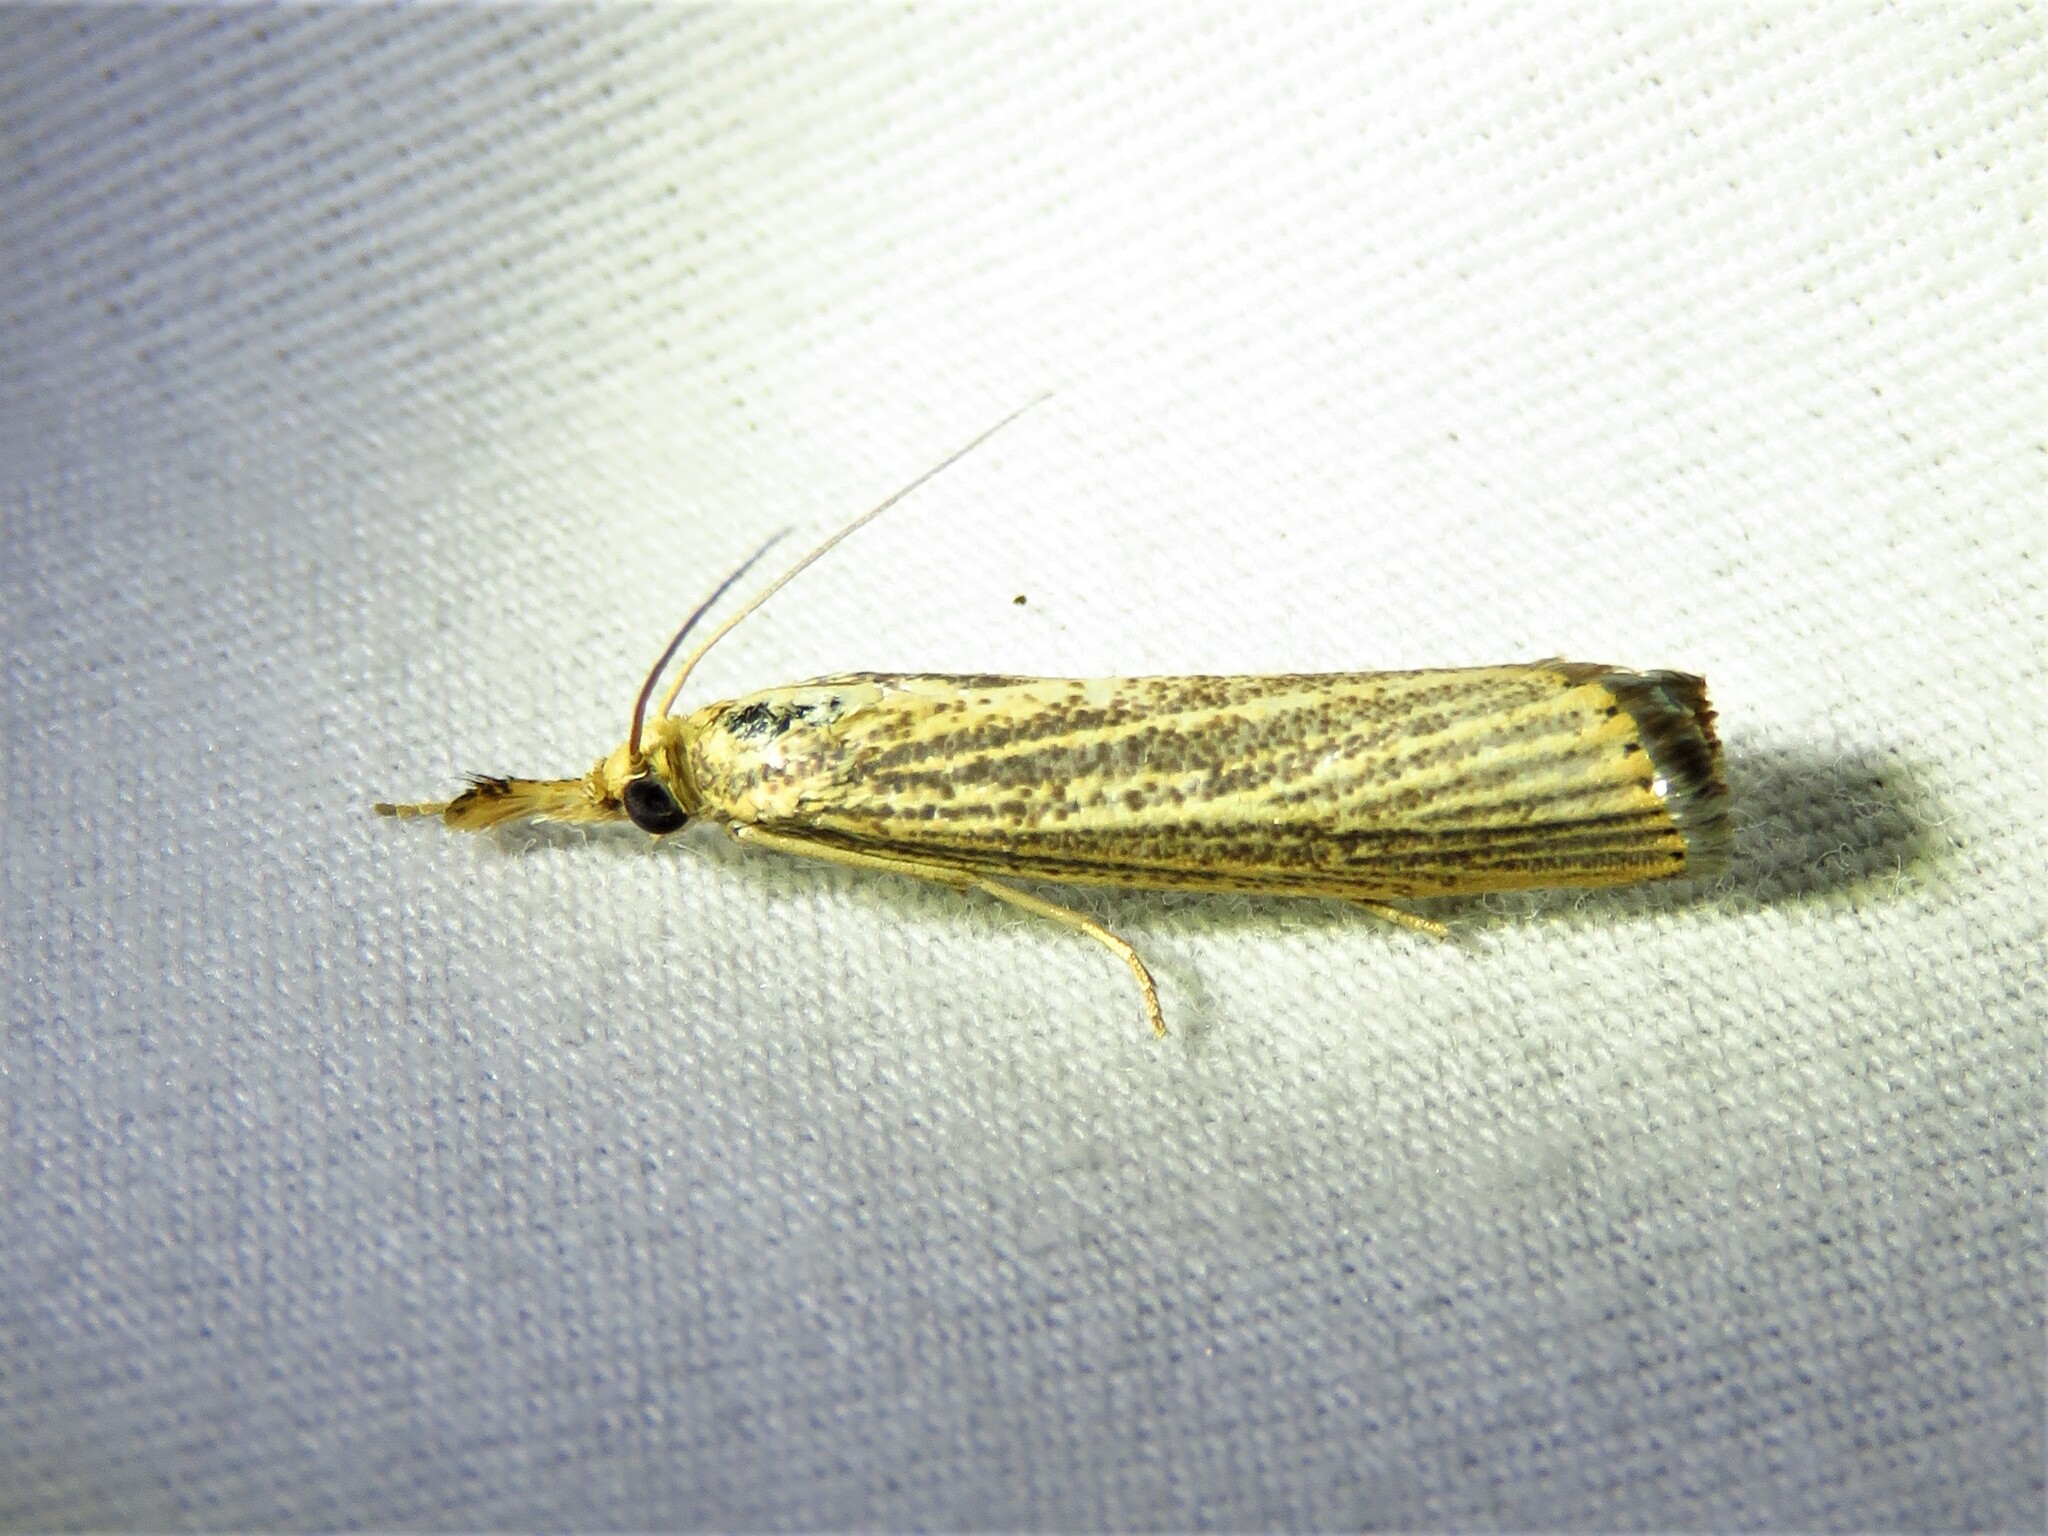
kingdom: Animalia
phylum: Arthropoda
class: Insecta
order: Lepidoptera
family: Crambidae
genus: Agriphila
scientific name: Agriphila vulgivagellus
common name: Vagabond crambus moth
